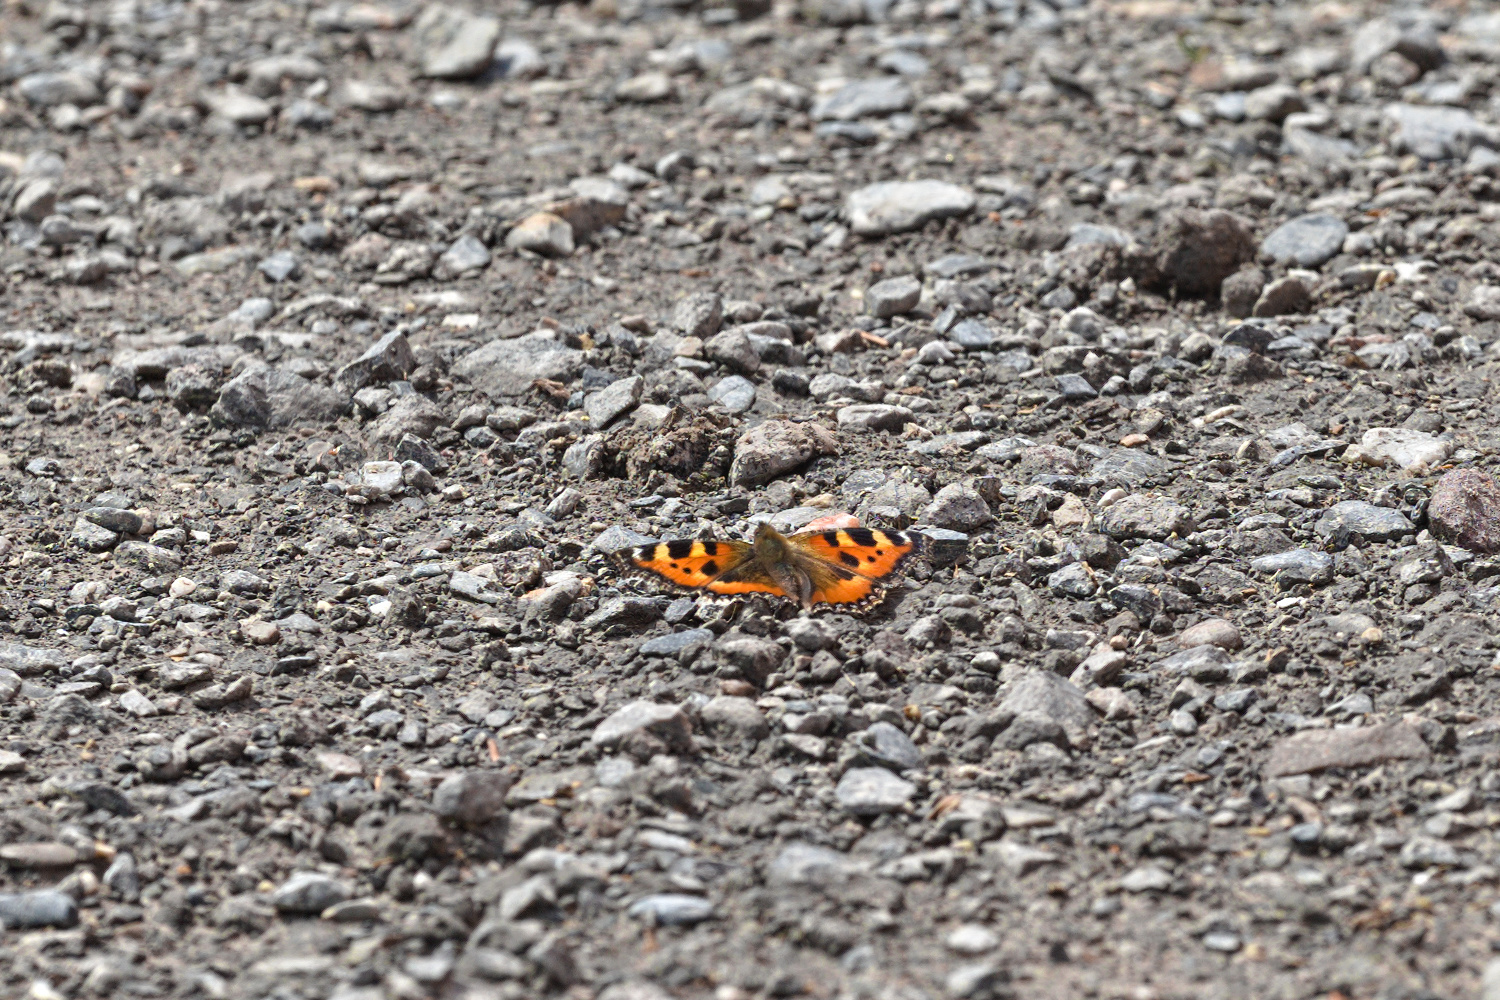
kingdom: Animalia
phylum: Arthropoda
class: Insecta
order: Lepidoptera
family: Nymphalidae
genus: Aglais
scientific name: Aglais urticae
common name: Small tortoiseshell
